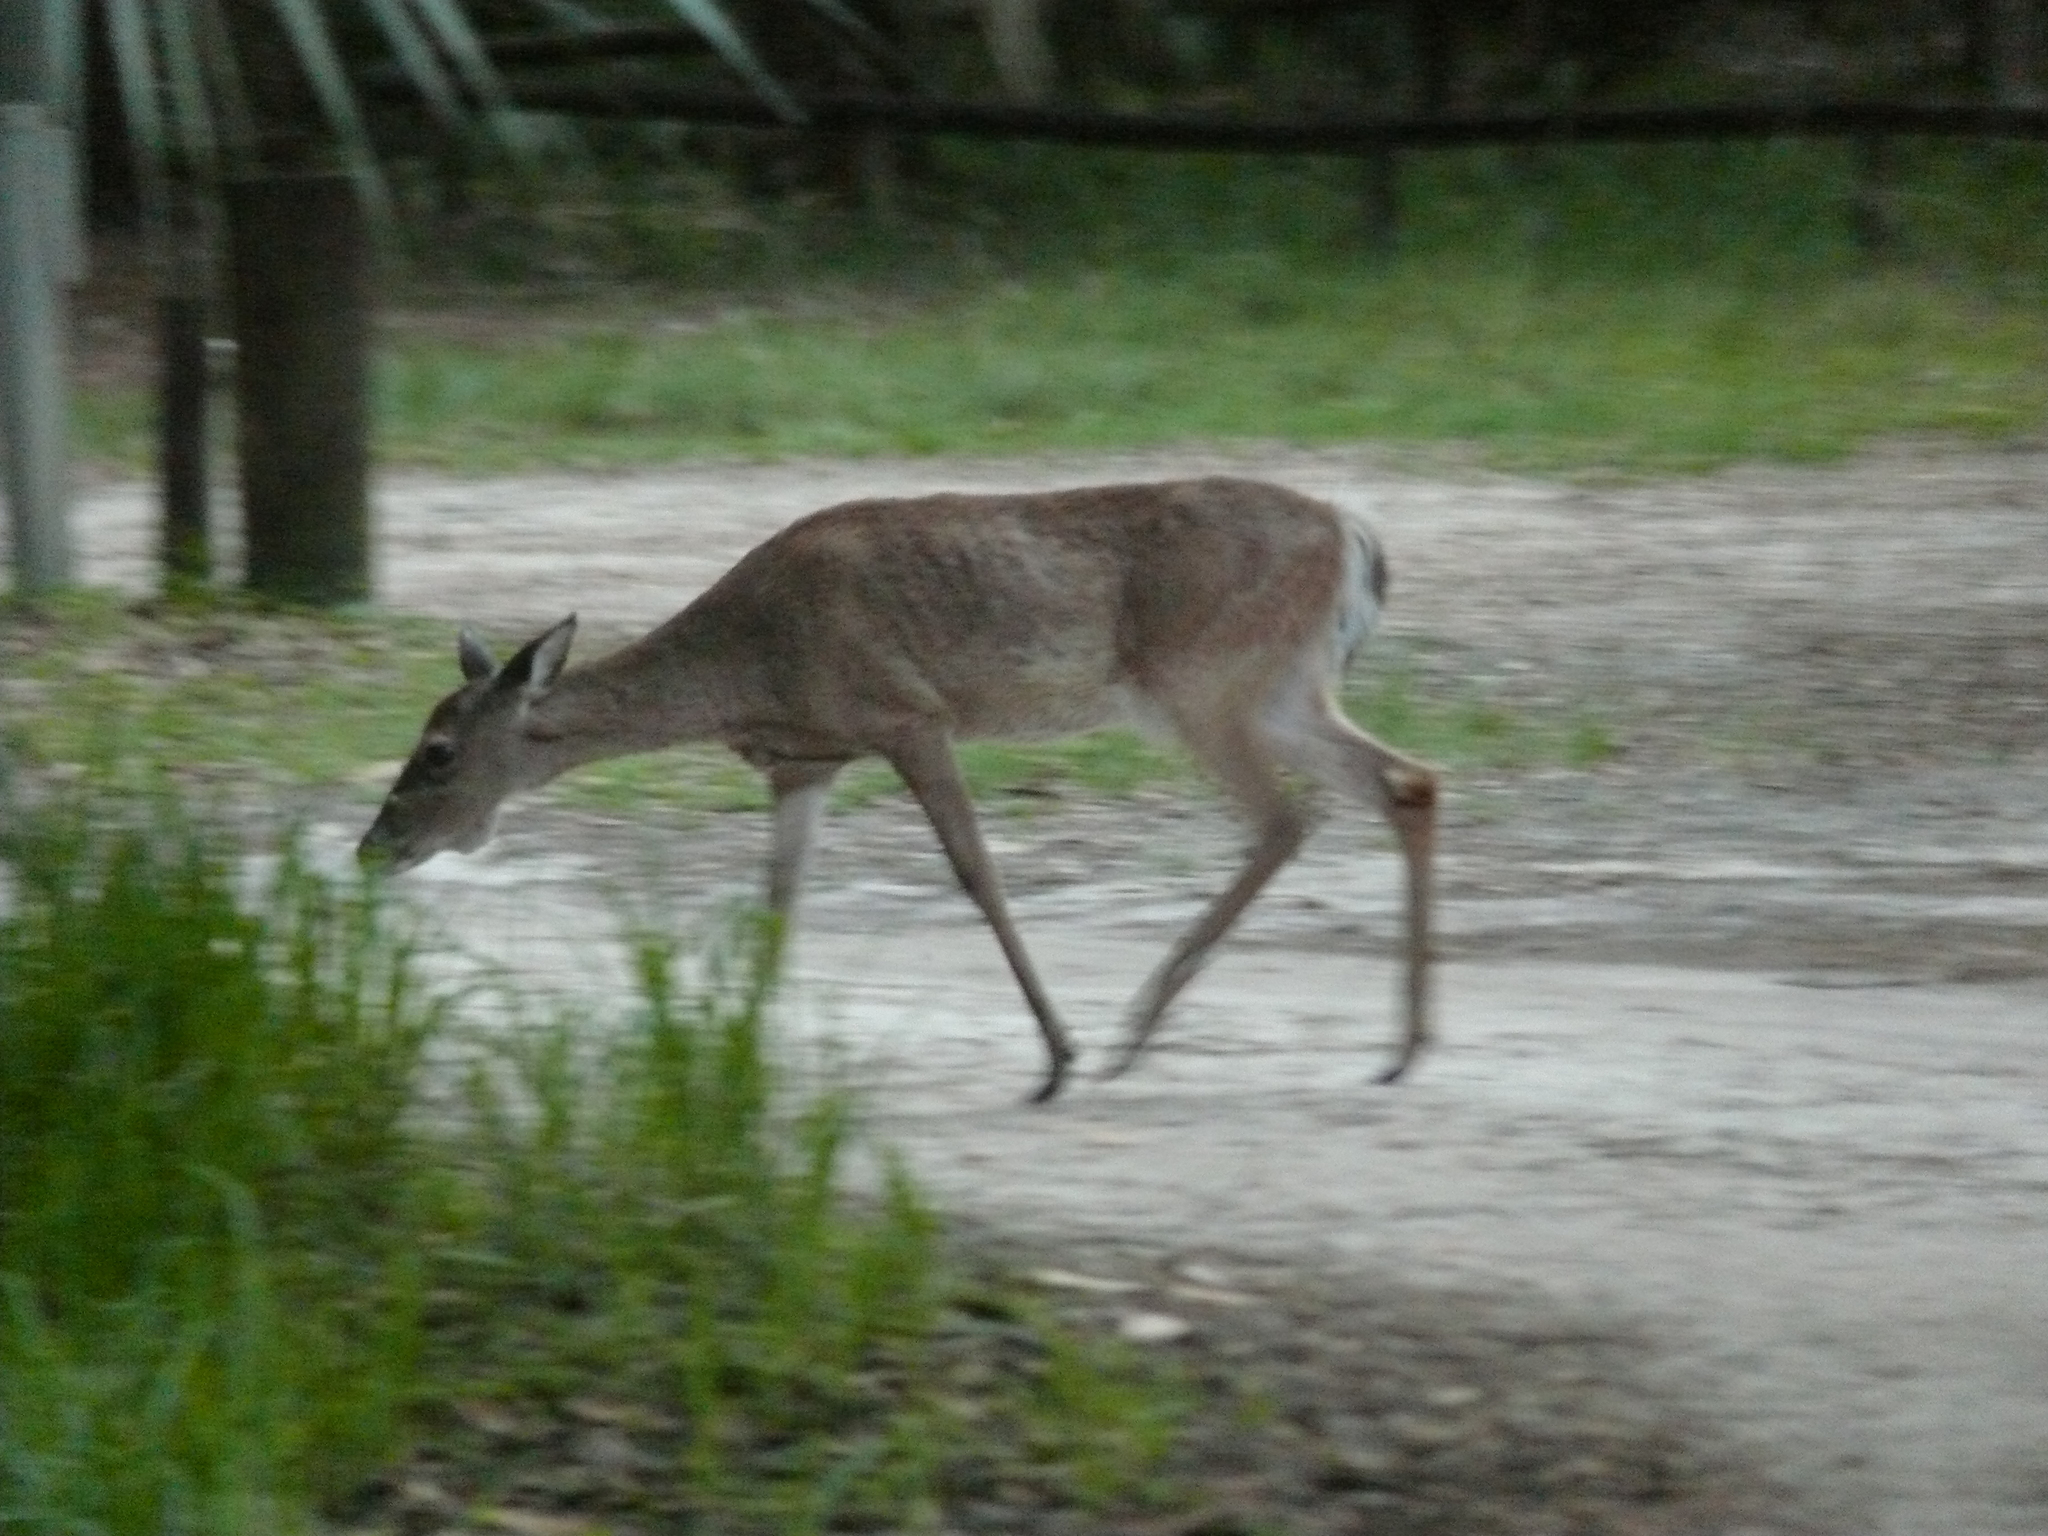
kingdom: Animalia
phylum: Chordata
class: Mammalia
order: Artiodactyla
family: Cervidae
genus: Odocoileus
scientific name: Odocoileus virginianus
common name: White-tailed deer
